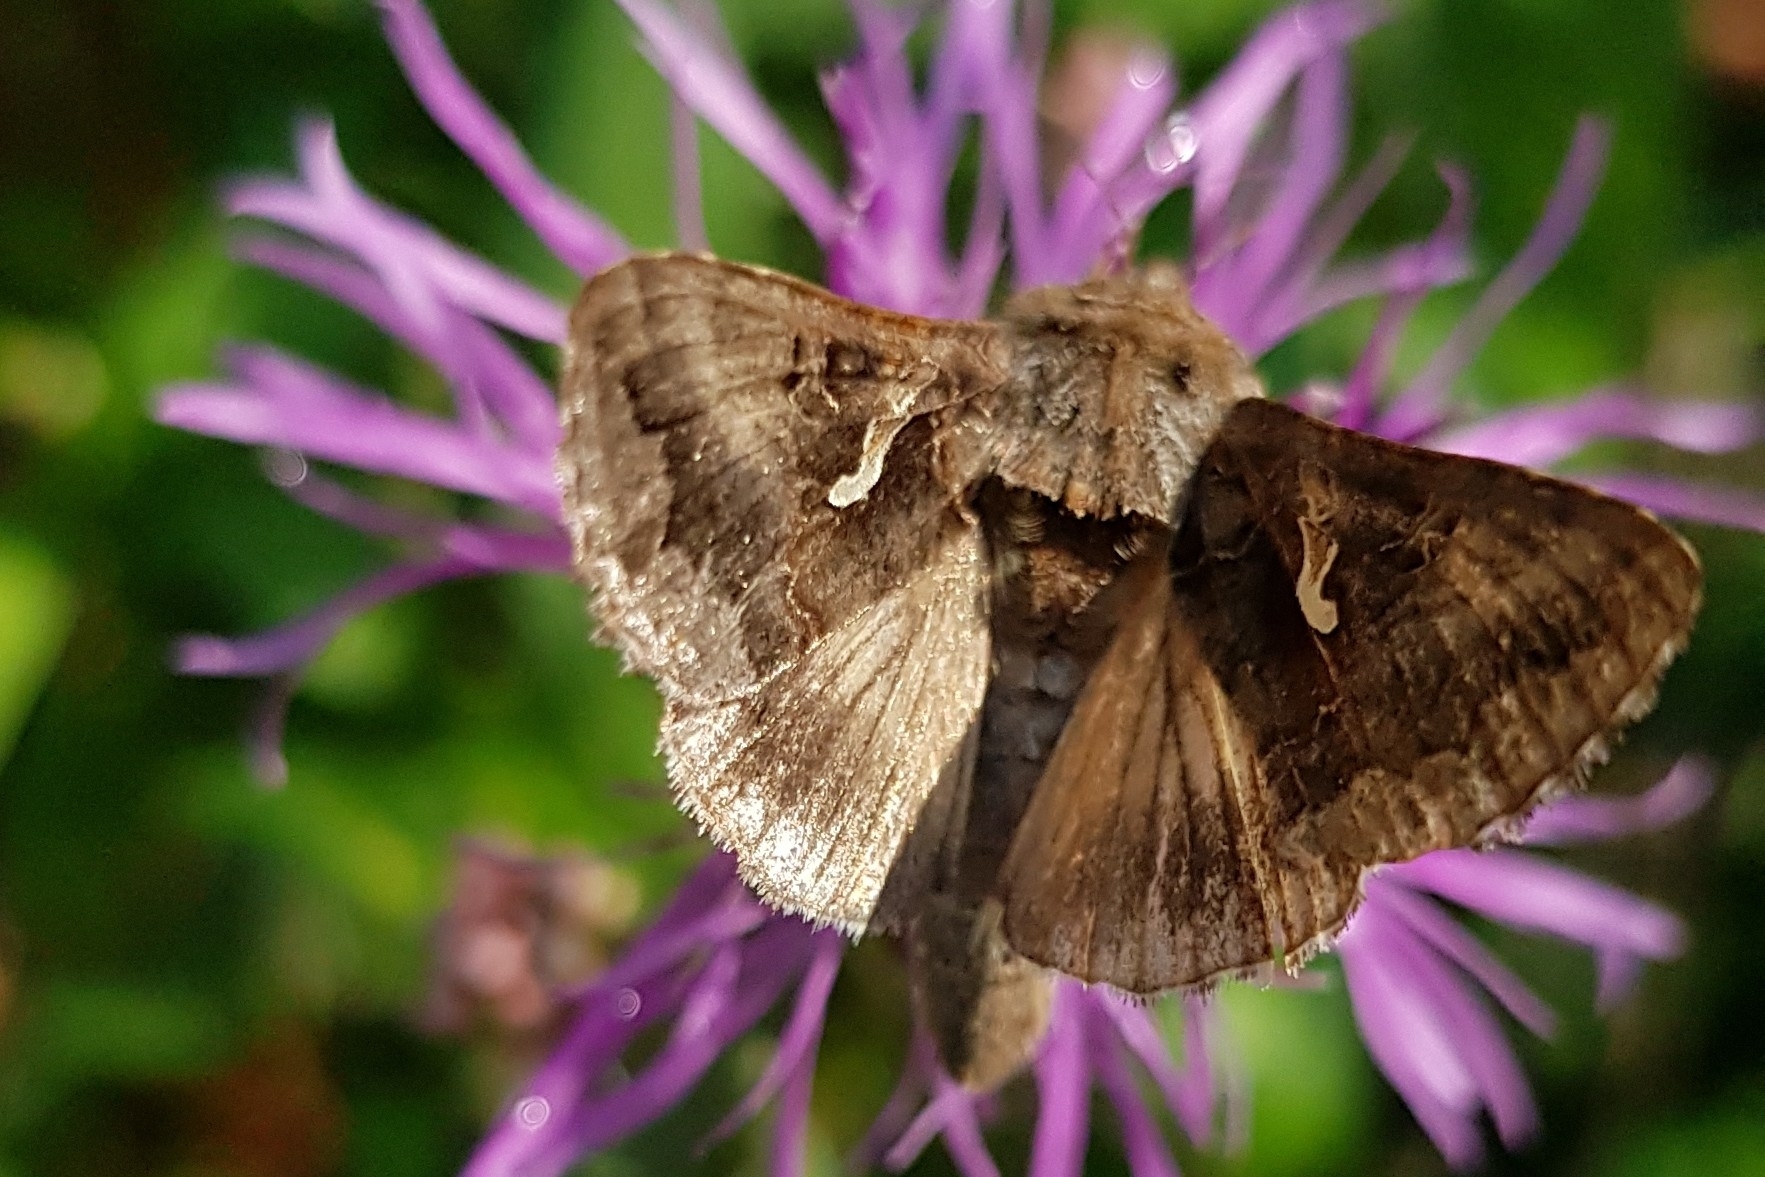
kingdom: Animalia
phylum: Arthropoda
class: Insecta
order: Lepidoptera
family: Noctuidae
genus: Autographa
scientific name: Autographa gamma
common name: Silver y
